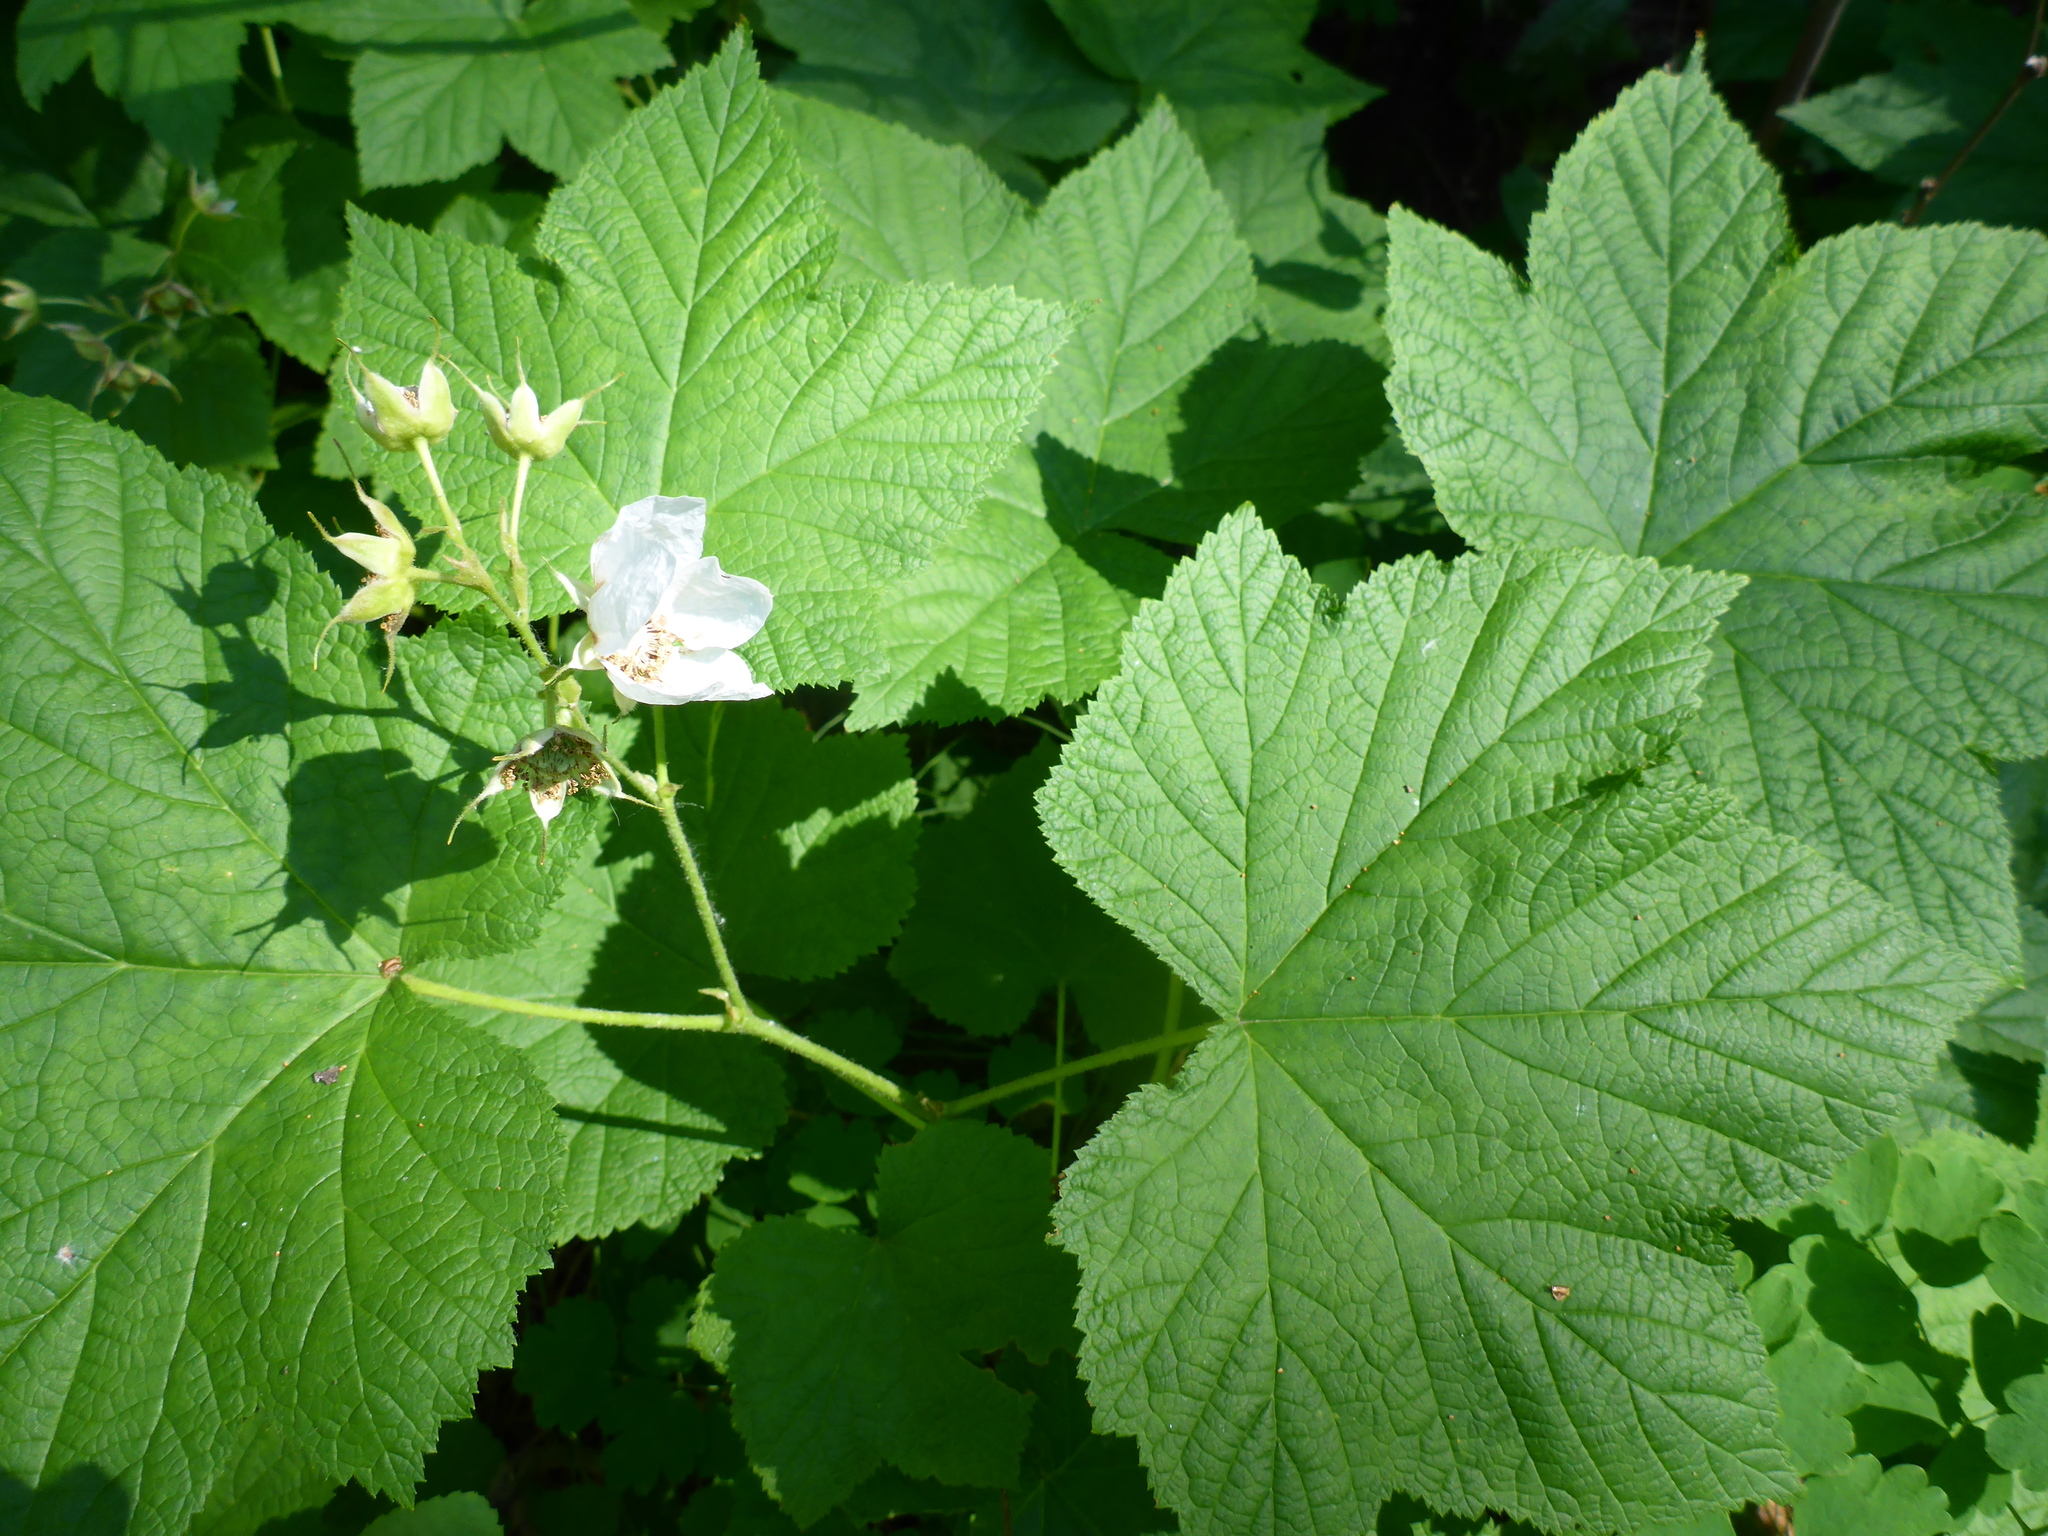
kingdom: Plantae
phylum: Tracheophyta
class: Magnoliopsida
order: Rosales
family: Rosaceae
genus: Rubus
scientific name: Rubus parviflorus
